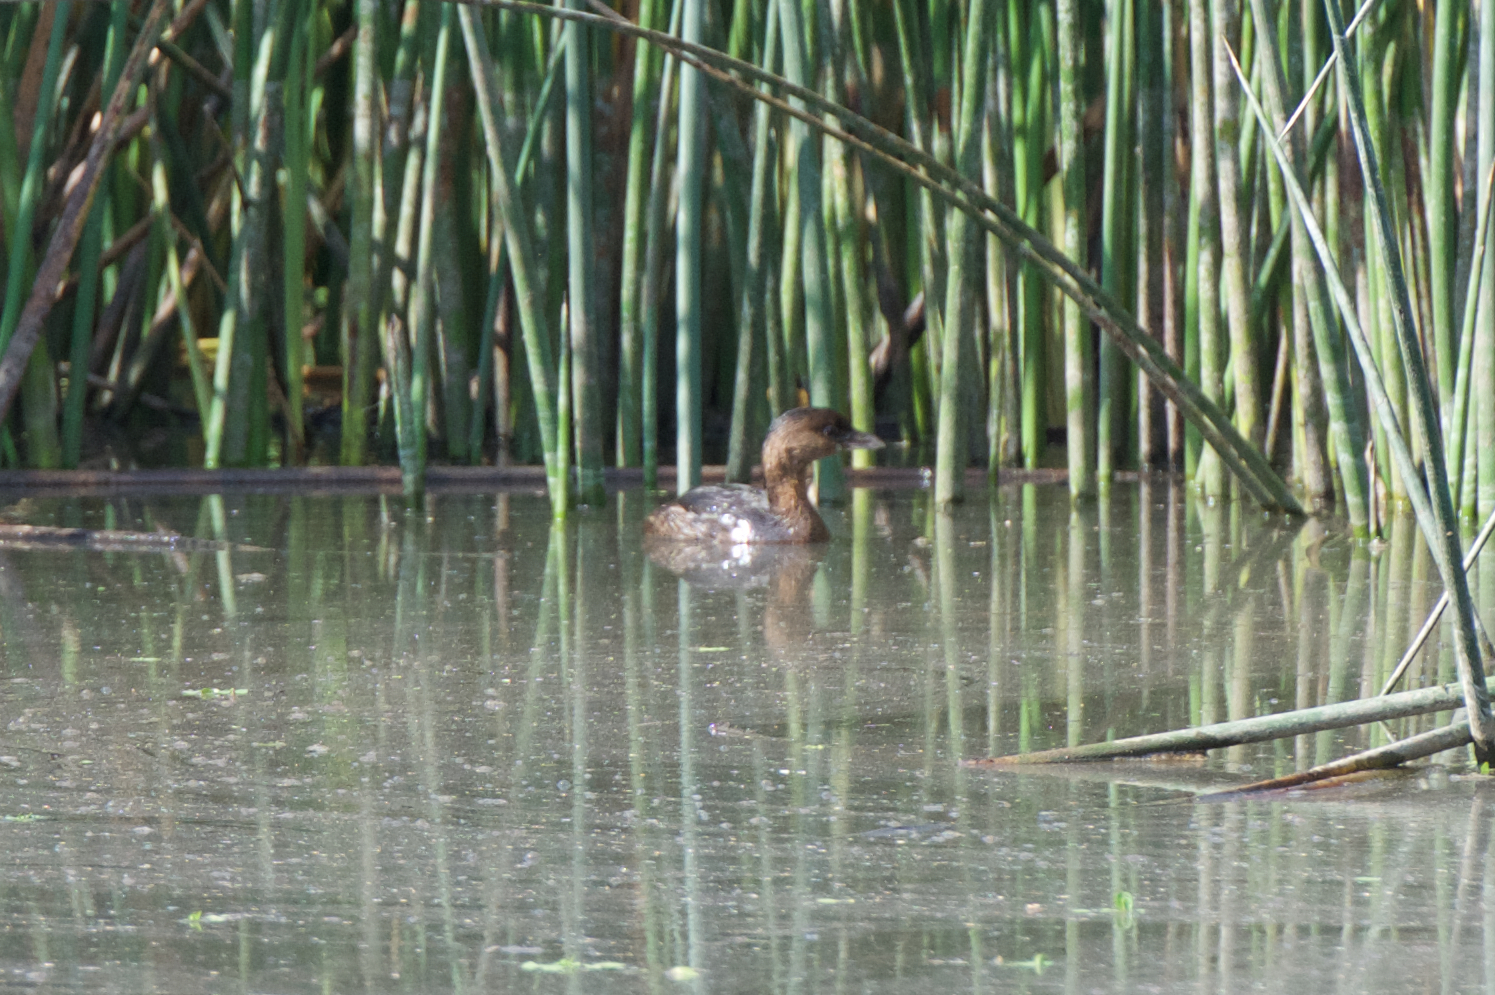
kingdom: Animalia
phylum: Chordata
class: Aves
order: Podicipediformes
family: Podicipedidae
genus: Podilymbus
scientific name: Podilymbus podiceps
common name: Pied-billed grebe
